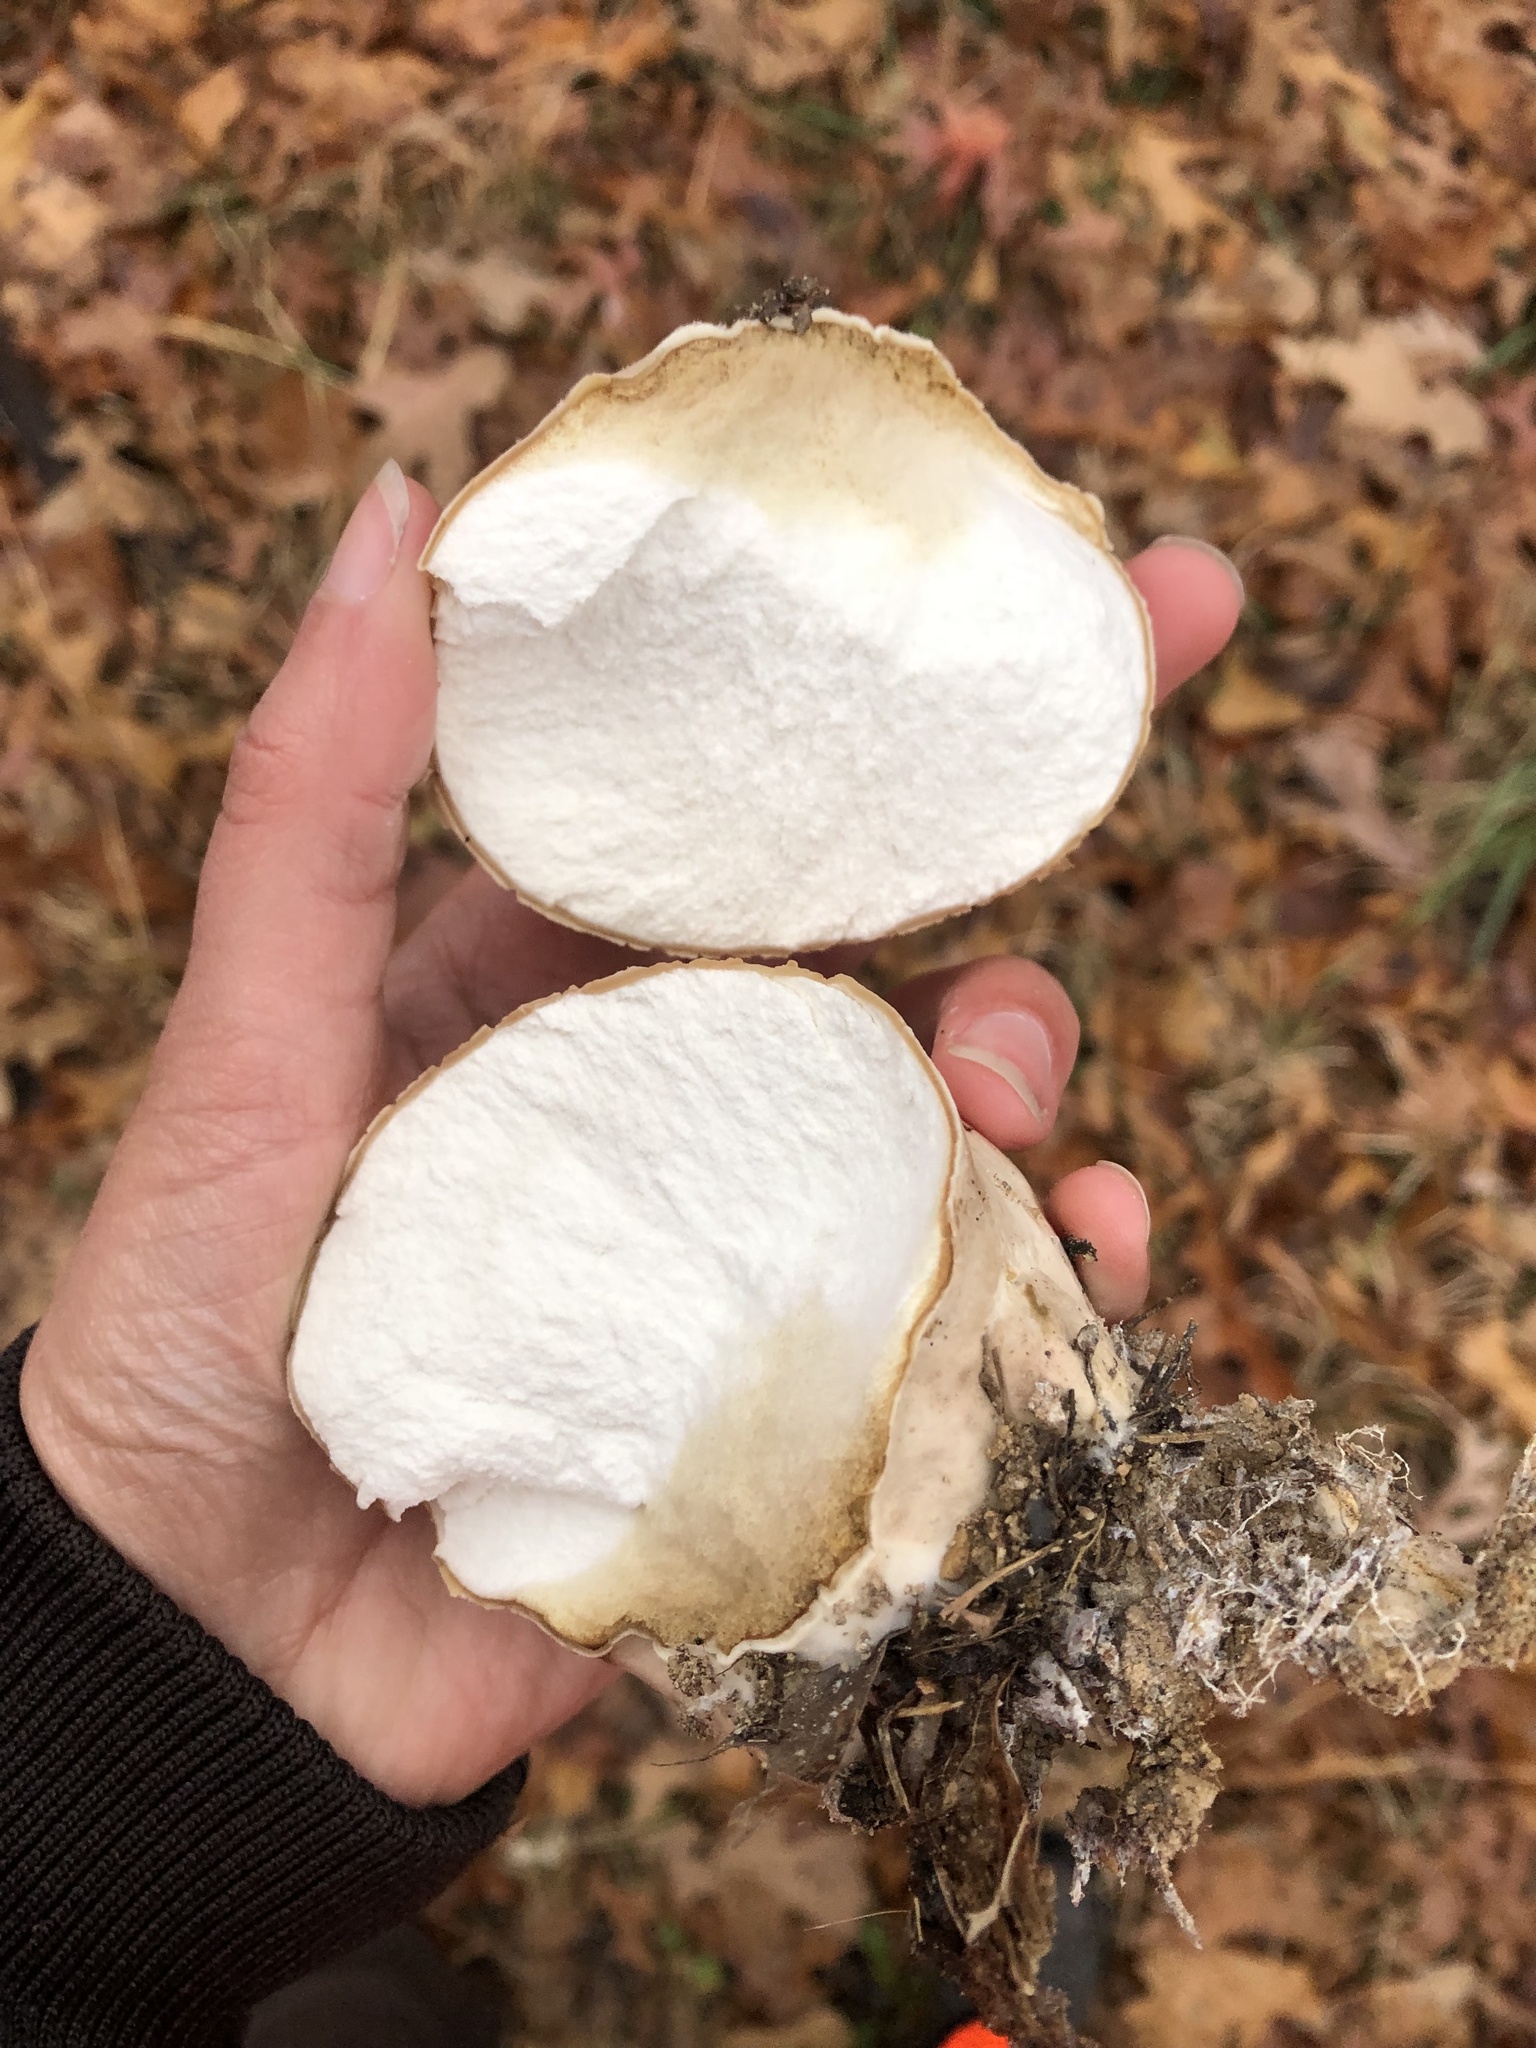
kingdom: Fungi
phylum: Basidiomycota
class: Agaricomycetes
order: Agaricales
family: Lycoperdaceae
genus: Calvatia
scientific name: Calvatia craniiformis
